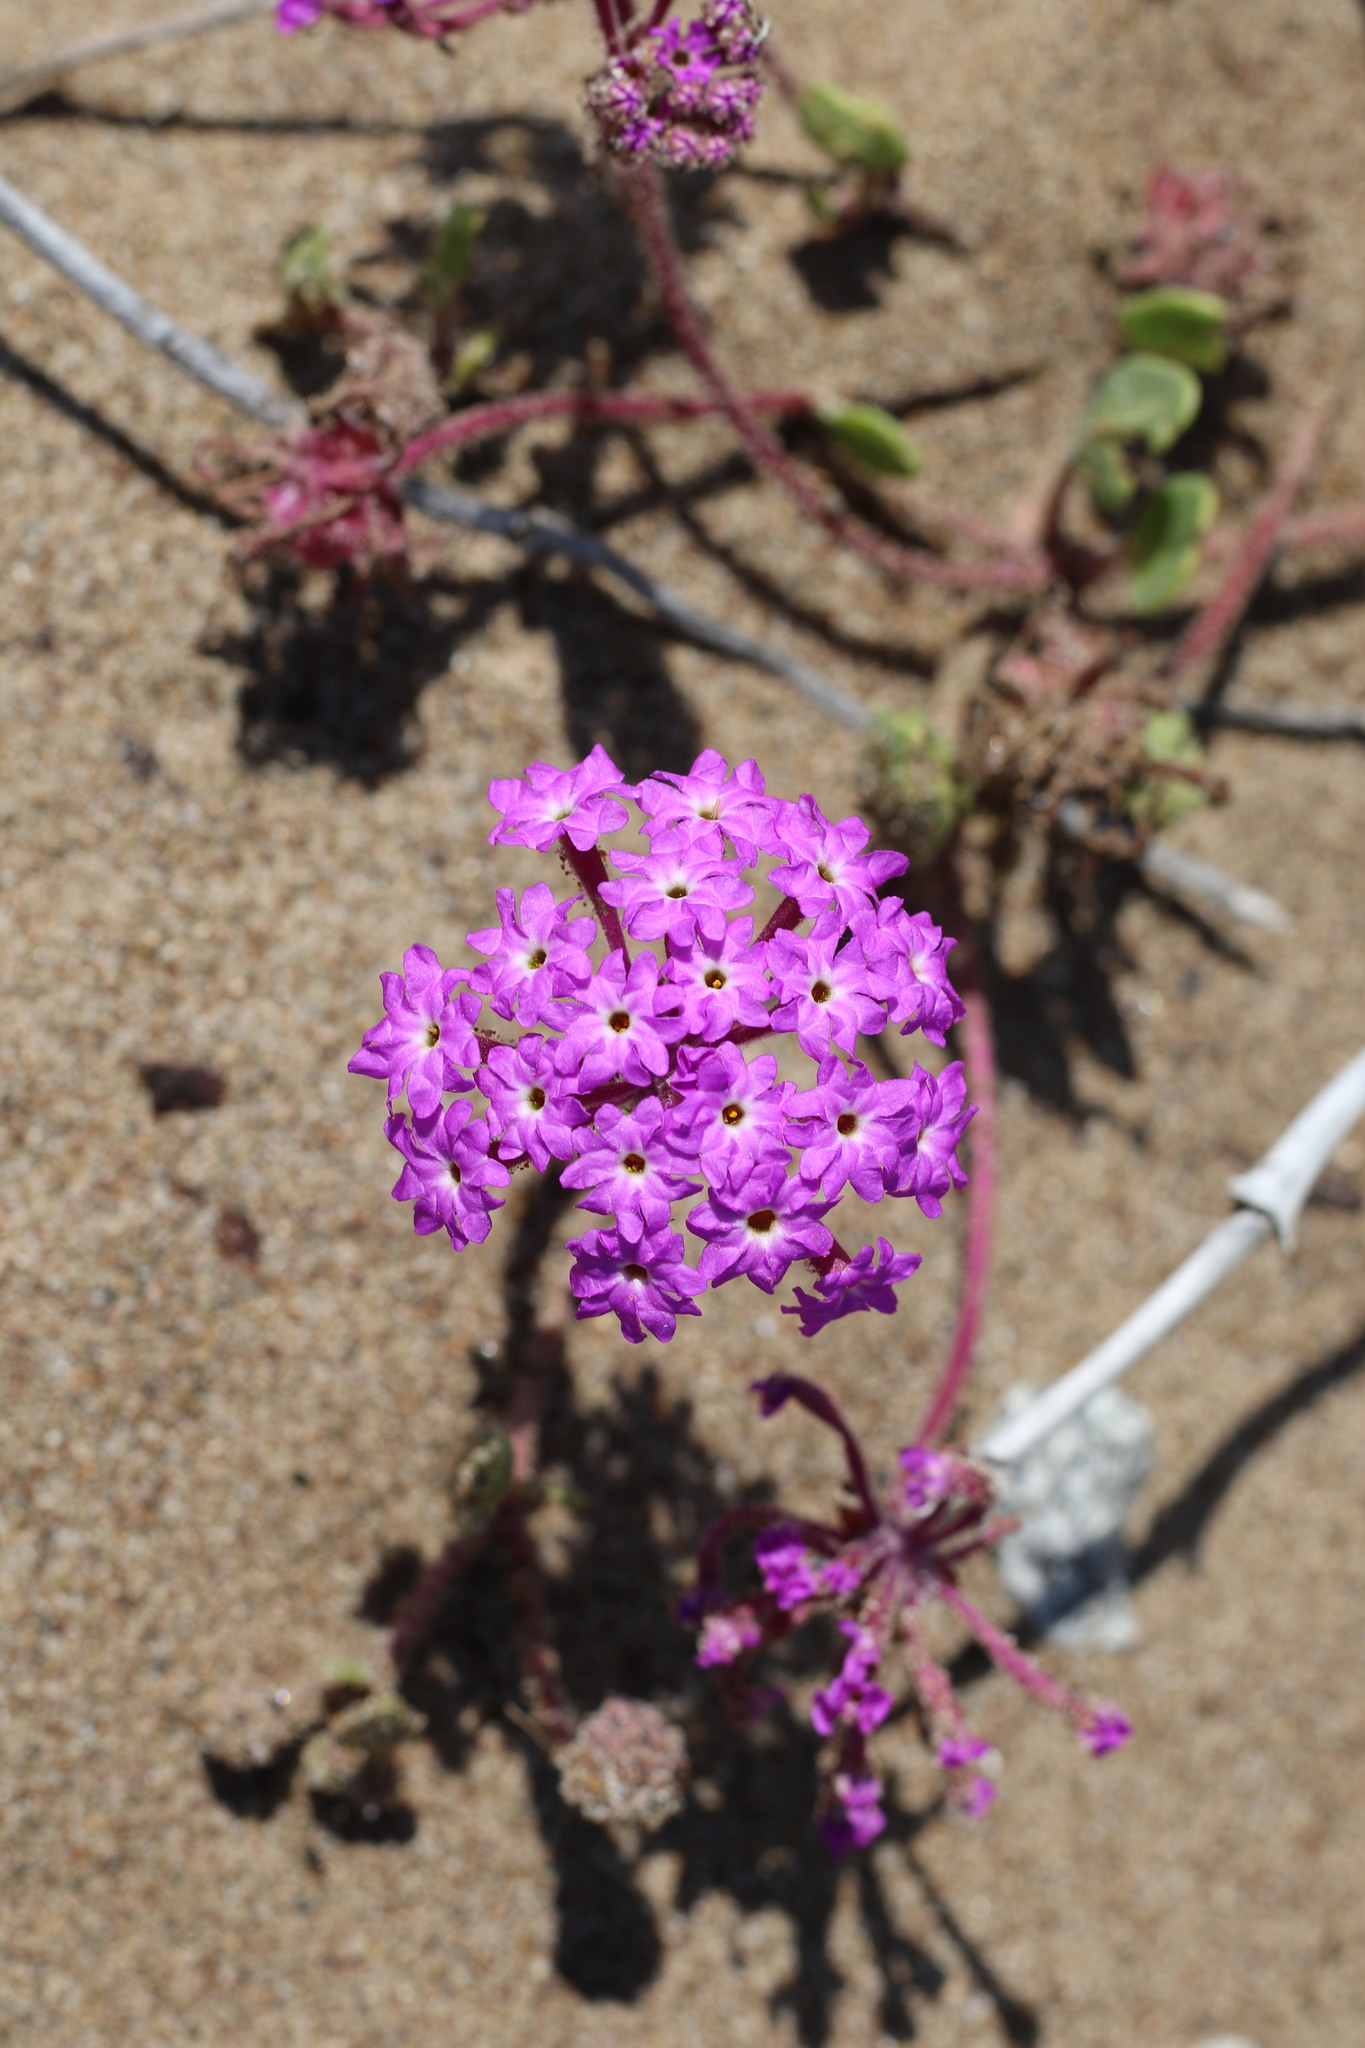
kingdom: Plantae
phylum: Tracheophyta
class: Magnoliopsida
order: Caryophyllales
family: Nyctaginaceae
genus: Abronia
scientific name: Abronia umbellata
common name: Sand-verbena
